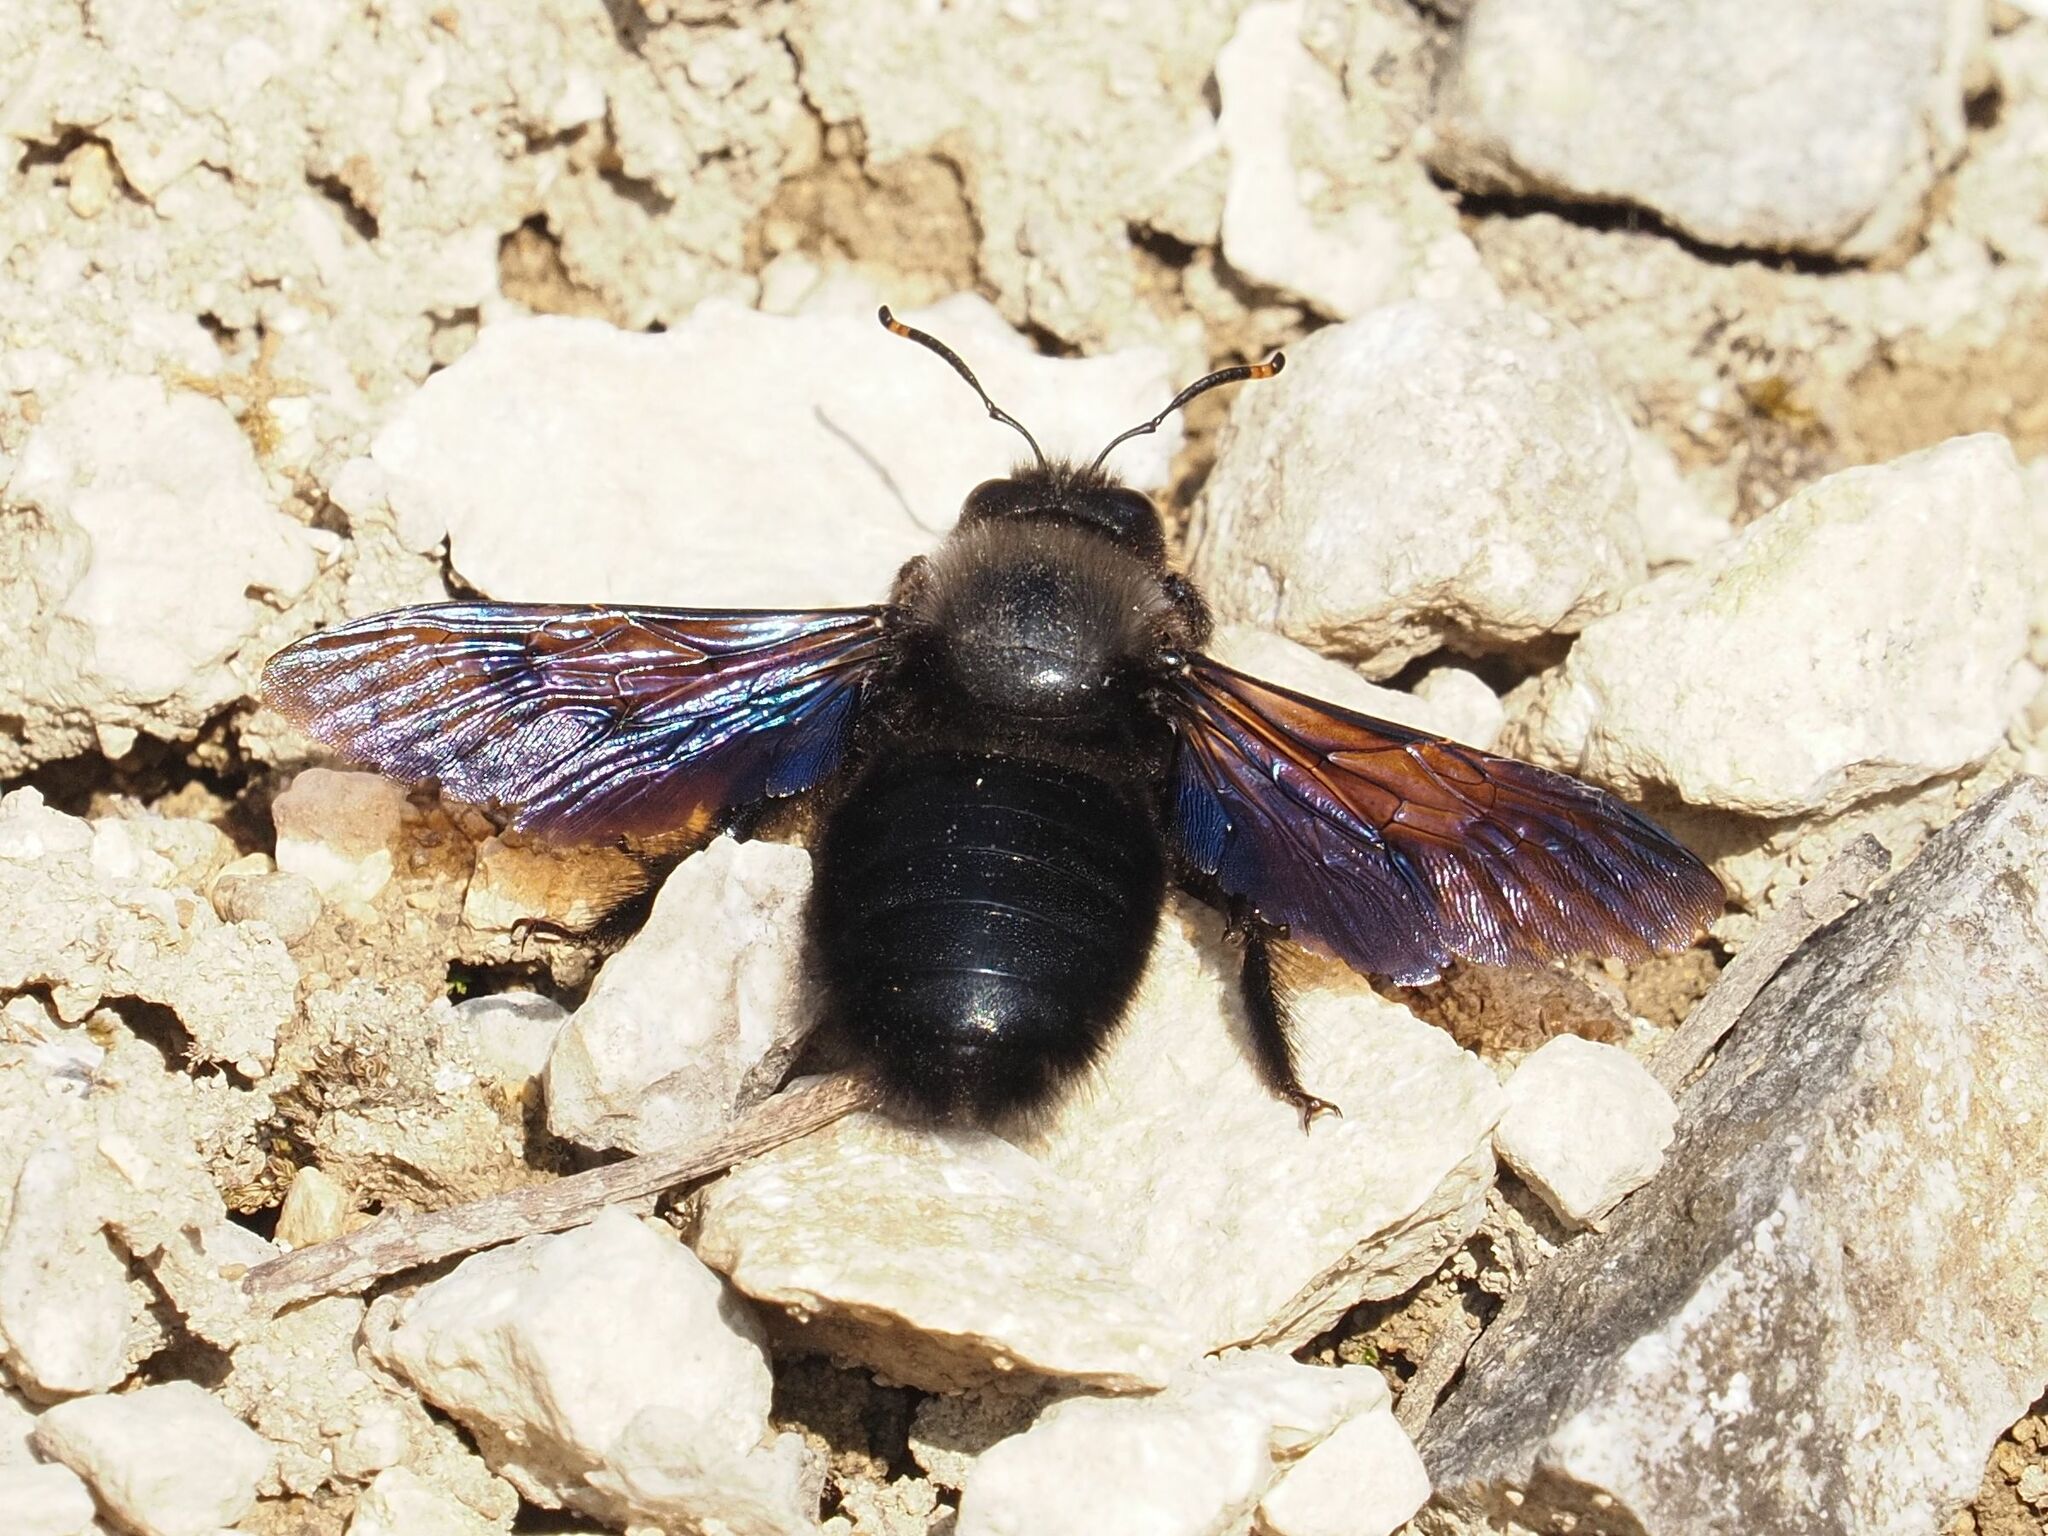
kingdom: Animalia
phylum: Arthropoda
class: Insecta
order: Hymenoptera
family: Apidae
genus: Xylocopa
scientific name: Xylocopa violacea
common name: Violet carpenter bee
